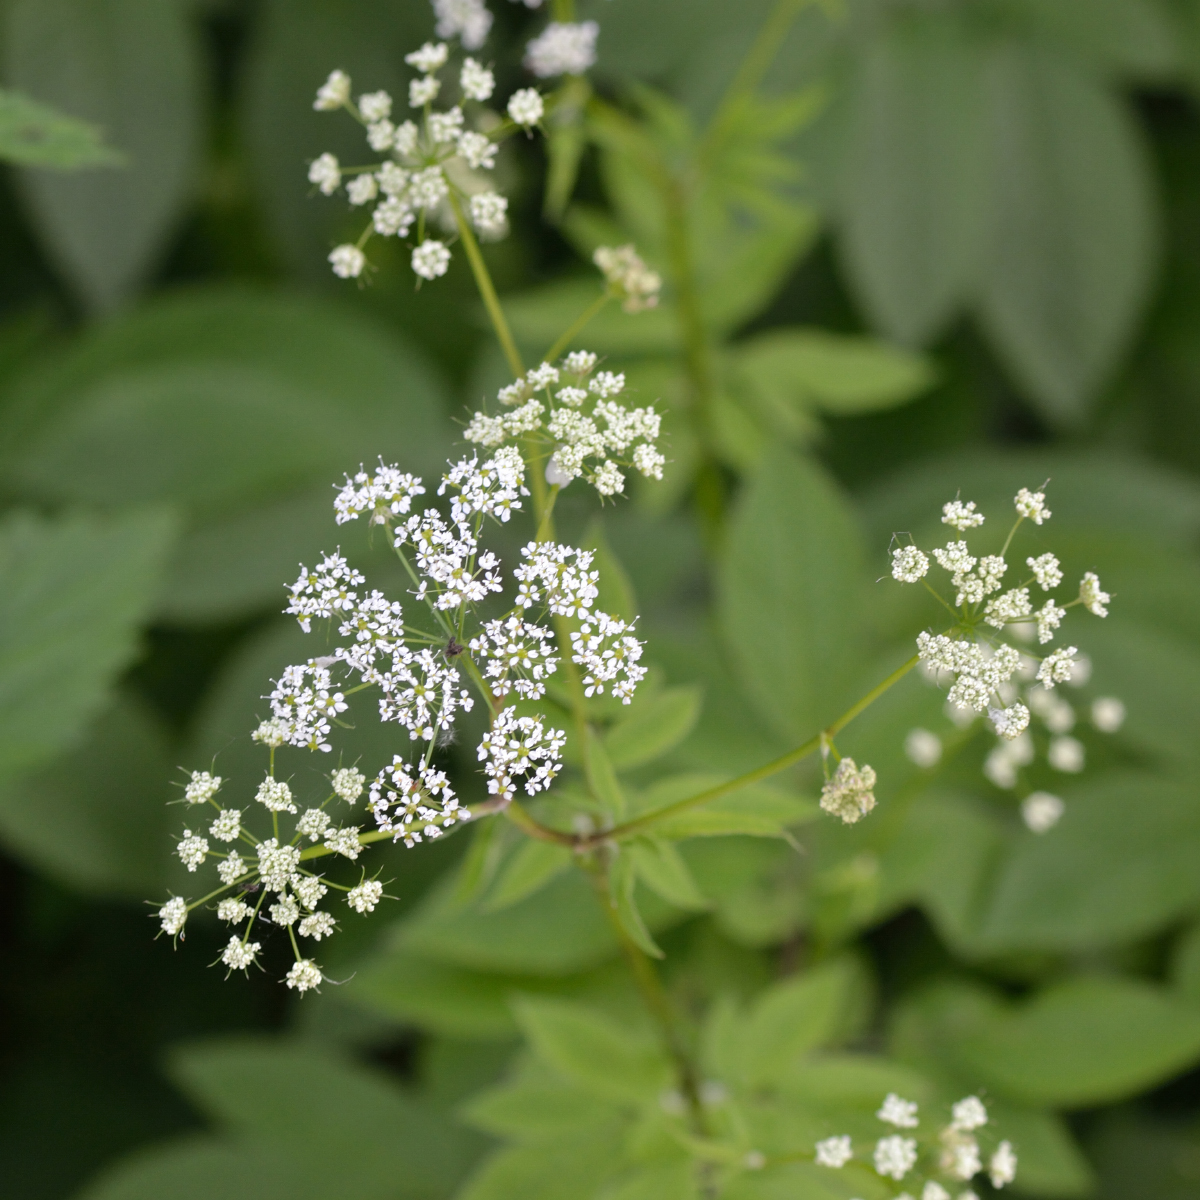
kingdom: Plantae
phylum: Tracheophyta
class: Magnoliopsida
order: Apiales
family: Apiaceae
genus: Aegopodium
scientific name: Aegopodium podagraria
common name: Ground-elder
